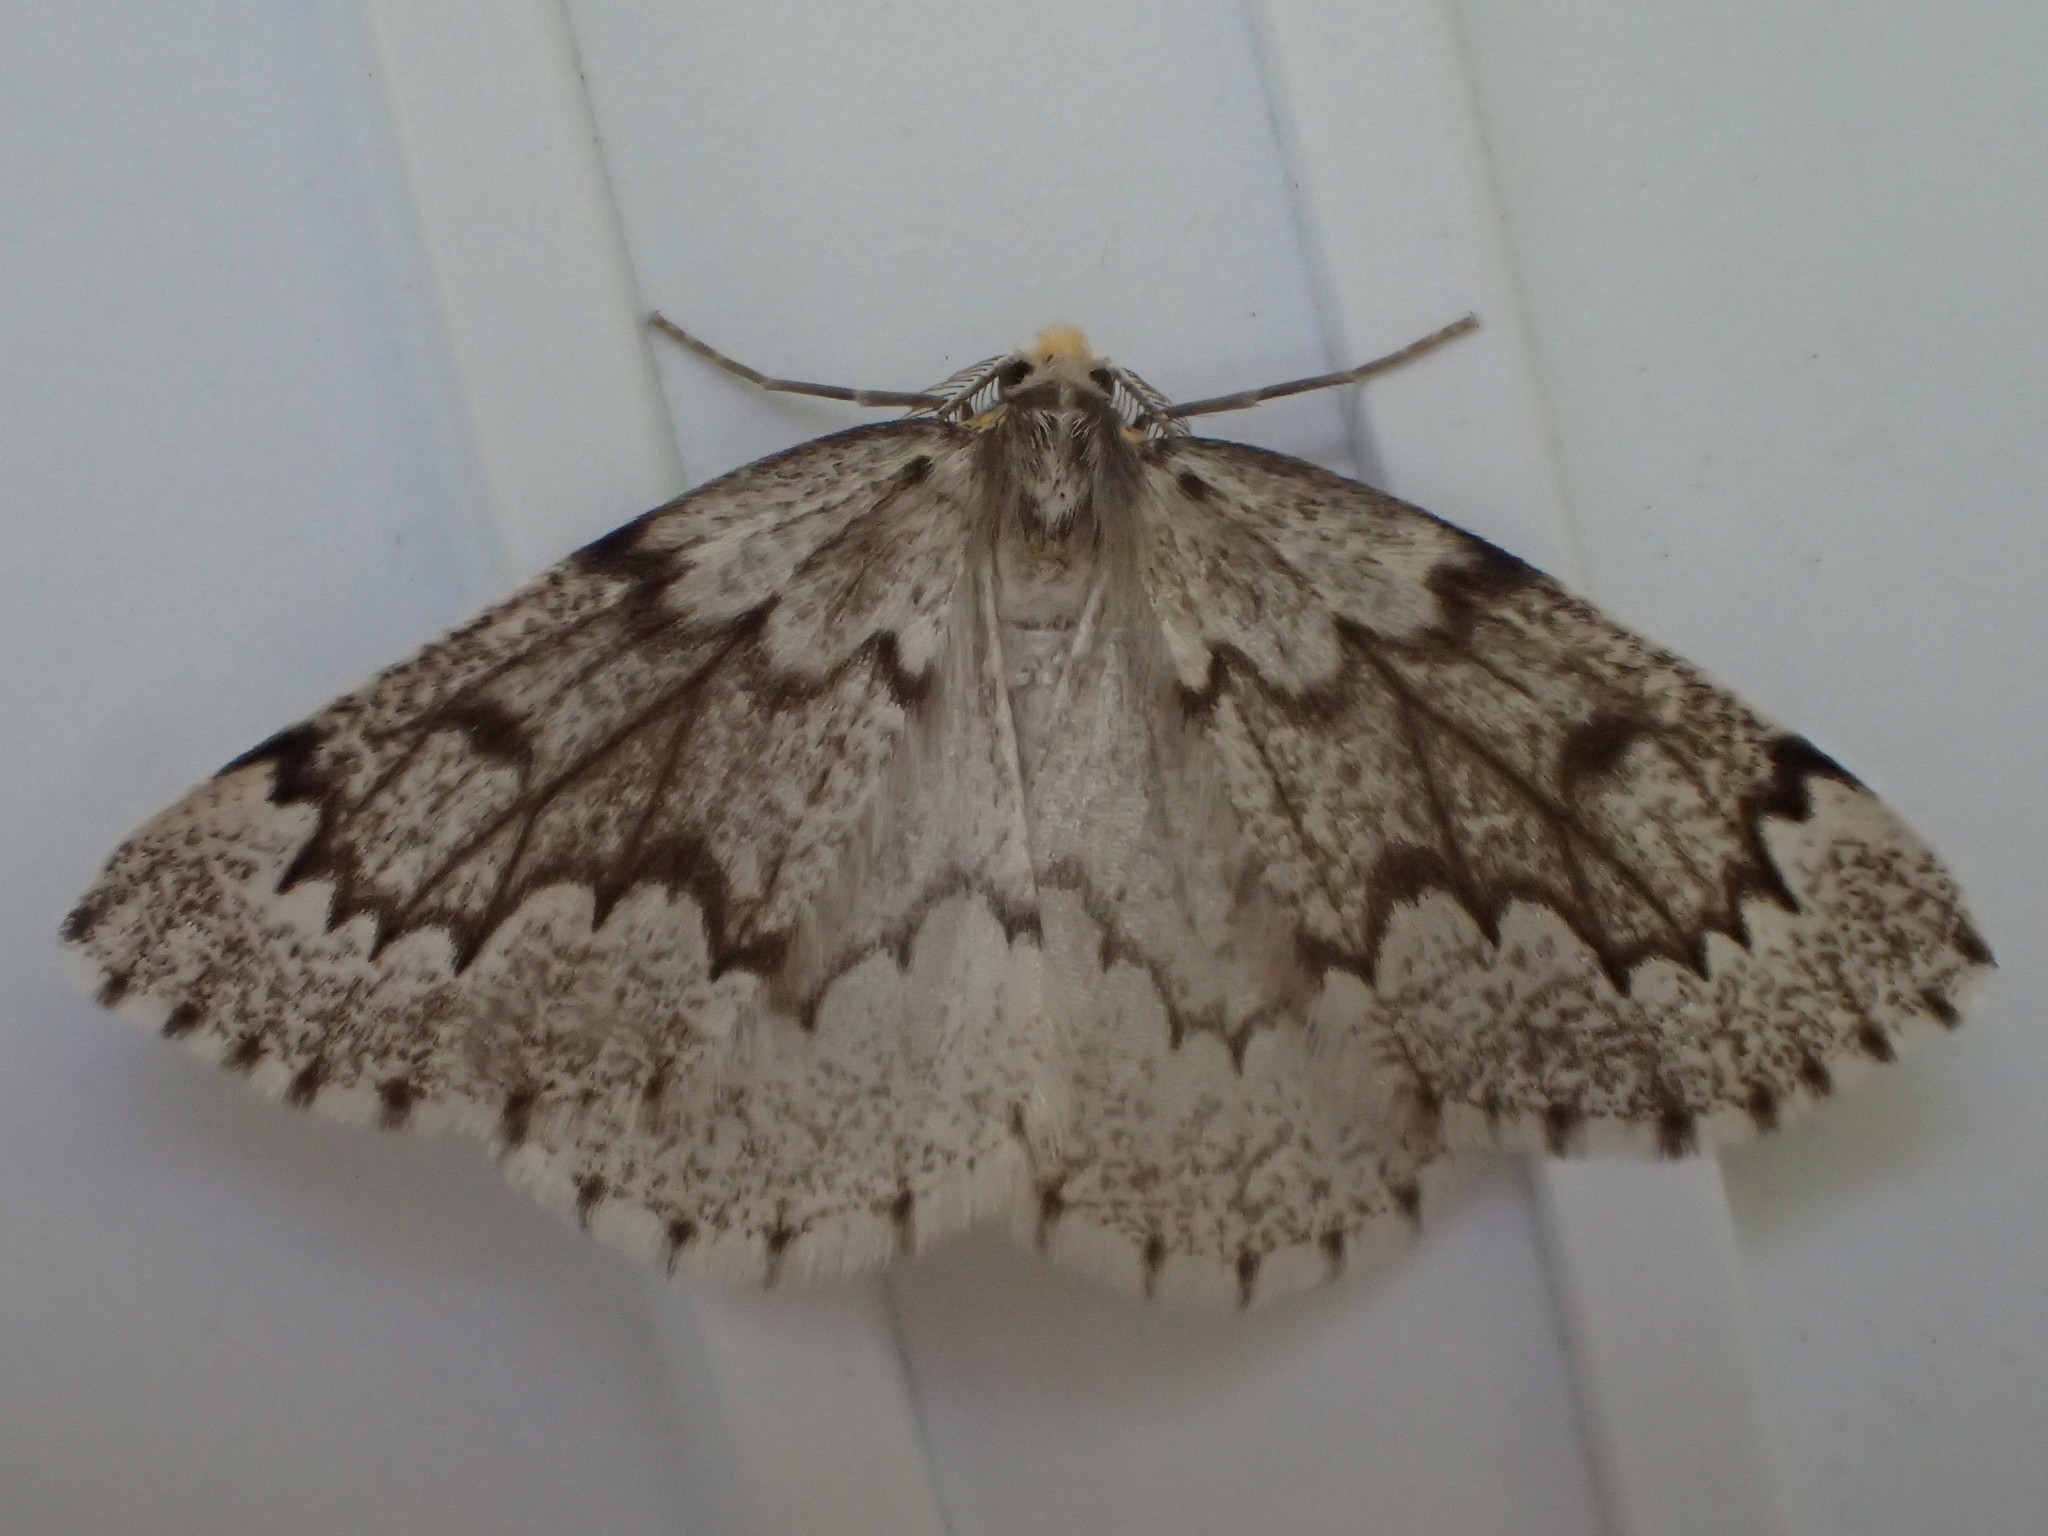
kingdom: Animalia
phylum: Arthropoda
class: Insecta
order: Lepidoptera
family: Geometridae
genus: Nepytia
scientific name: Nepytia canosaria
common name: False hemlock looper
